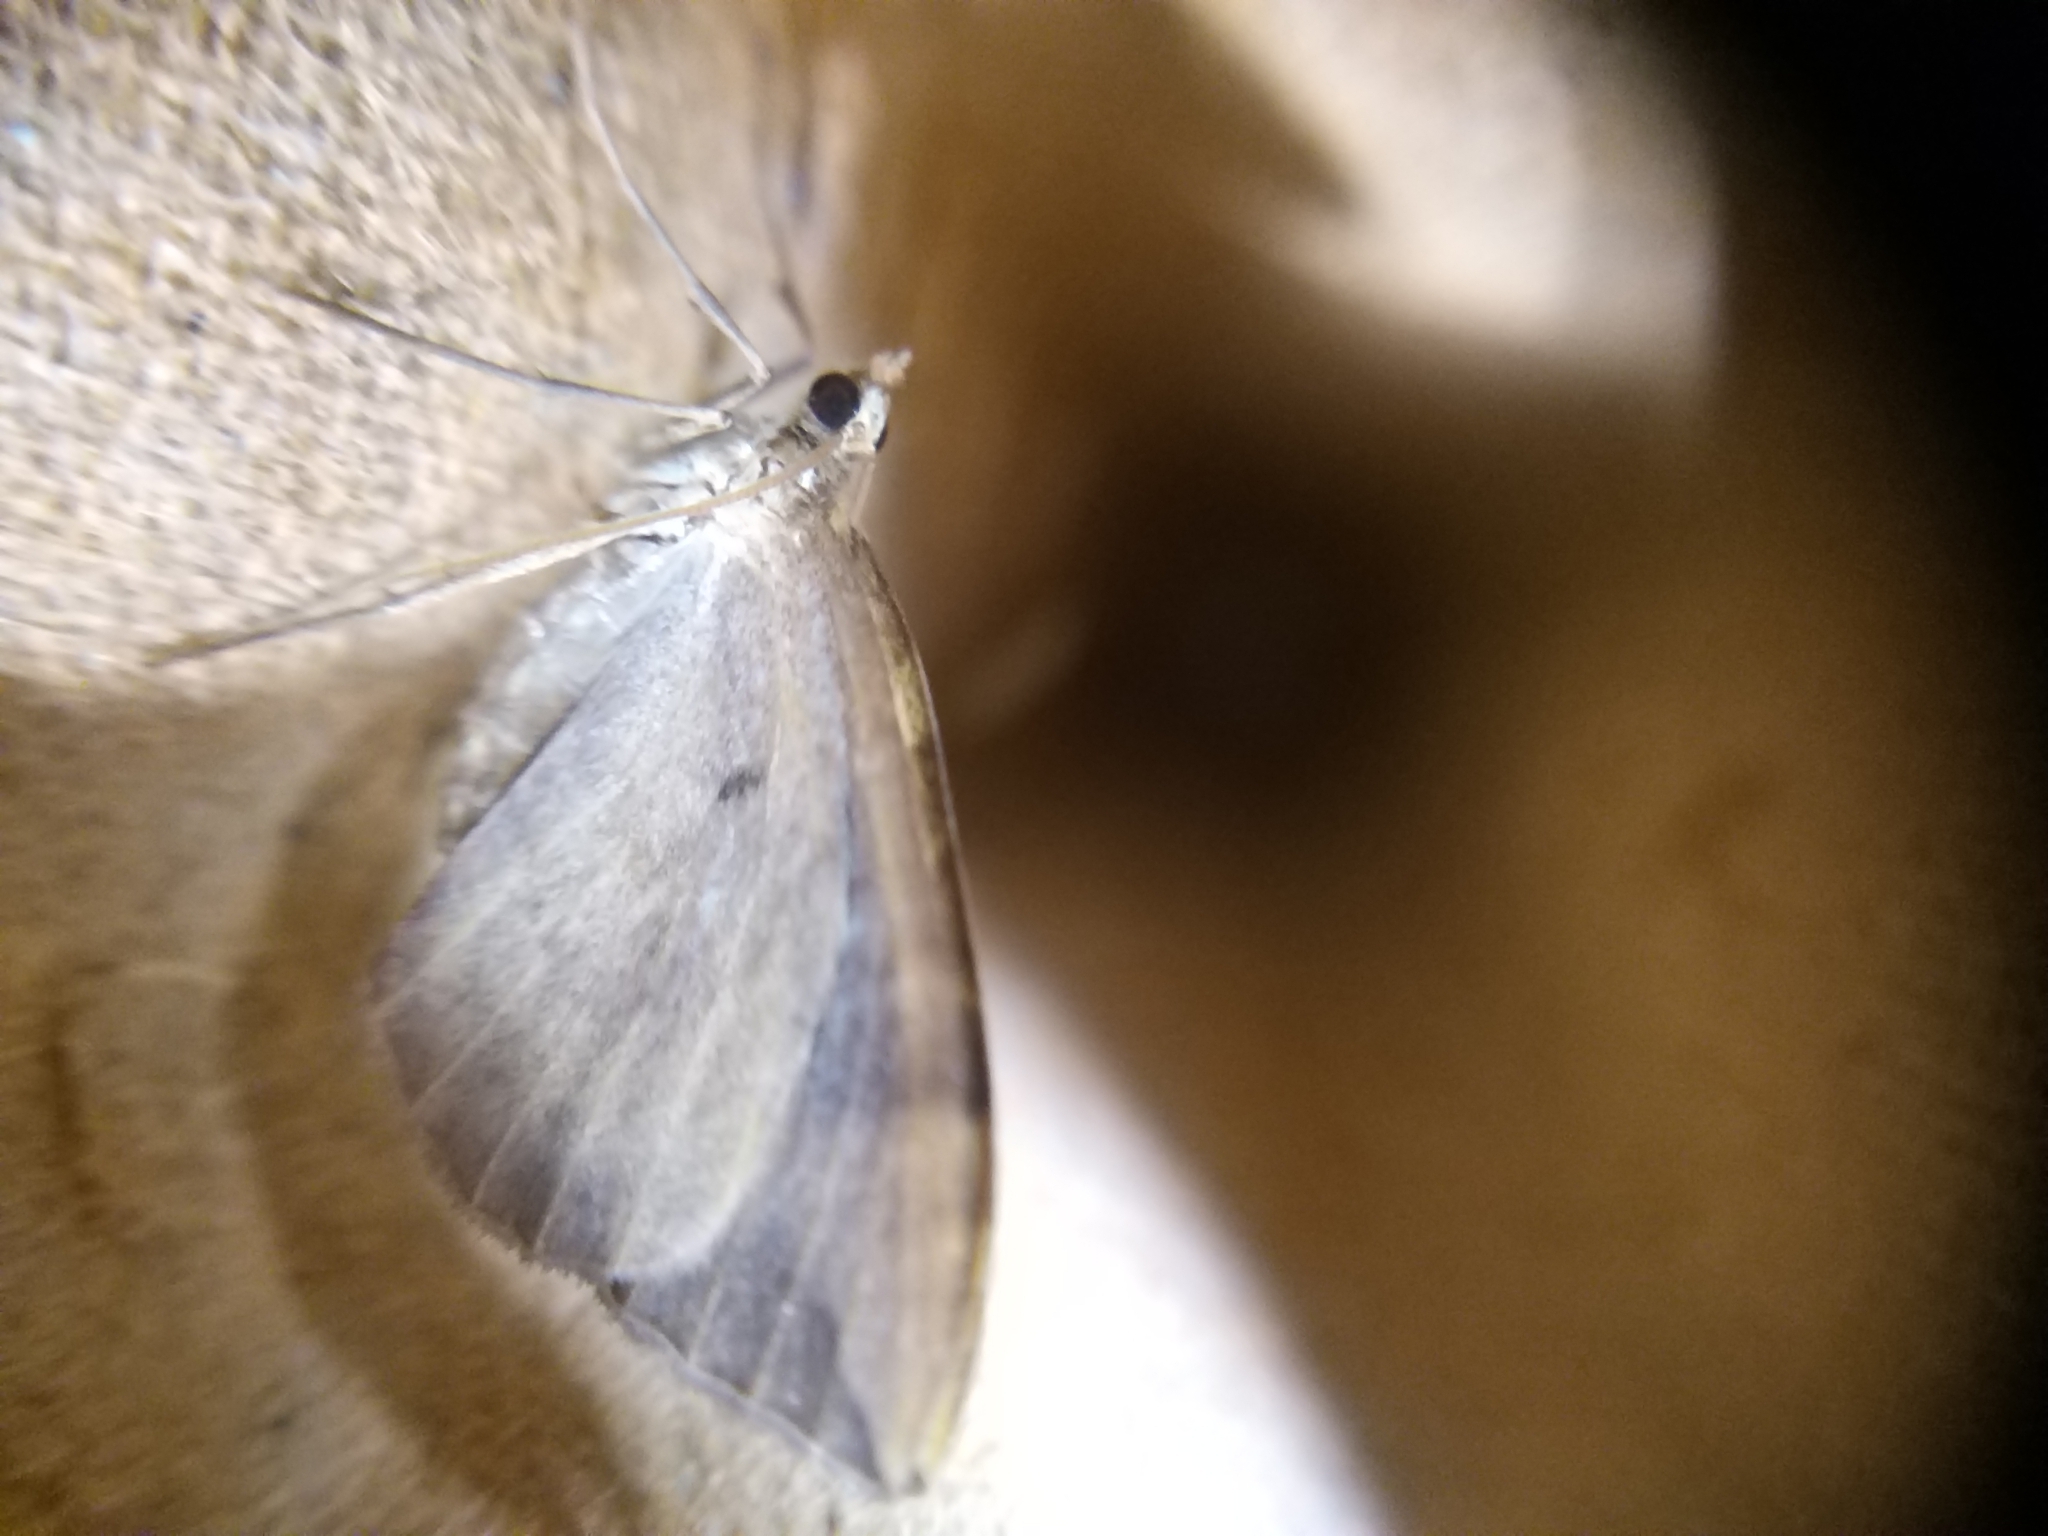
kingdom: Animalia
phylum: Arthropoda
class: Insecta
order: Lepidoptera
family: Geometridae
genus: Eulithis
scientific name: Eulithis populata
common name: Northern spinach
